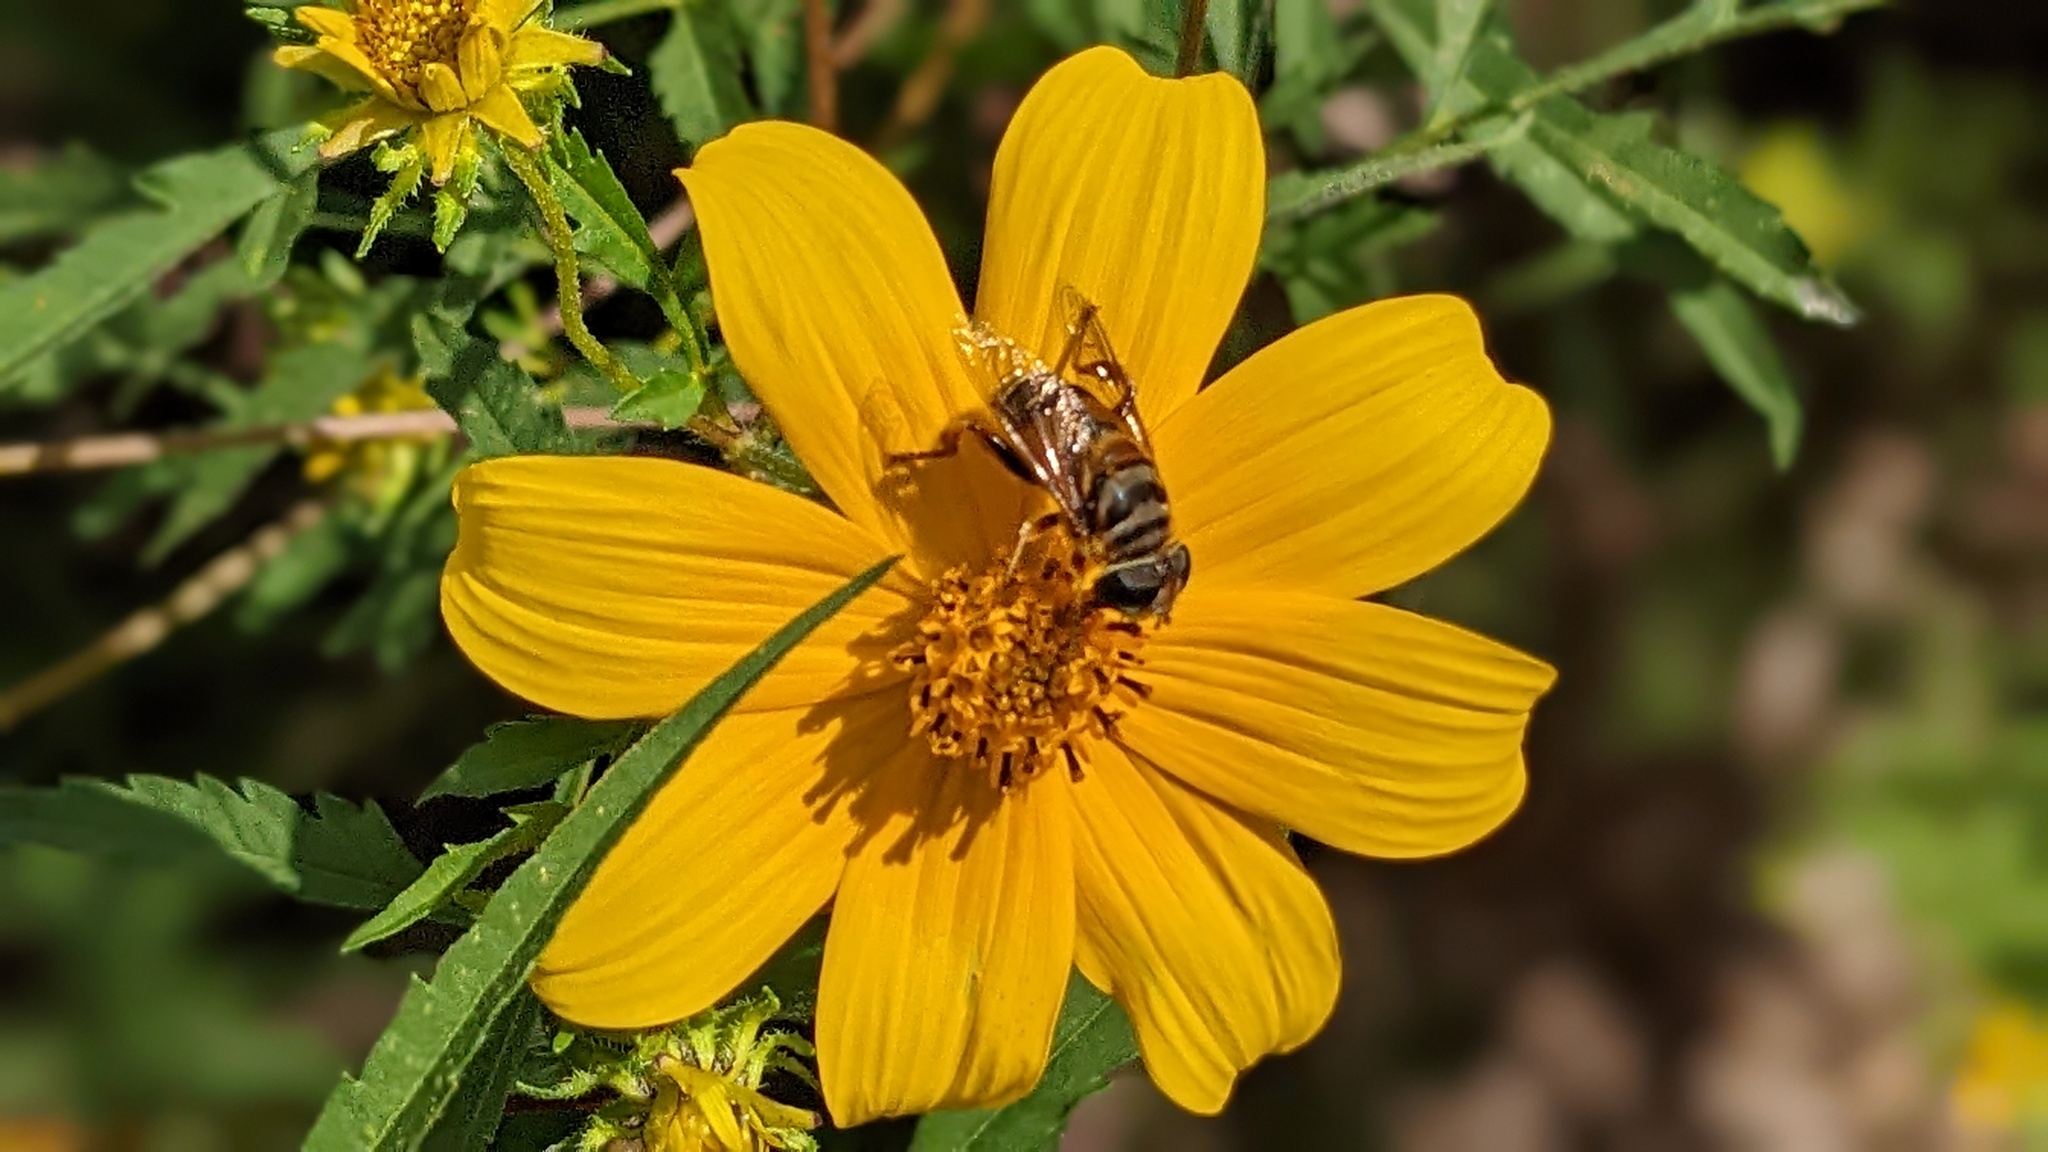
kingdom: Animalia
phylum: Arthropoda
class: Insecta
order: Diptera
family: Syrphidae
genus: Palpada
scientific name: Palpada vinetorum
